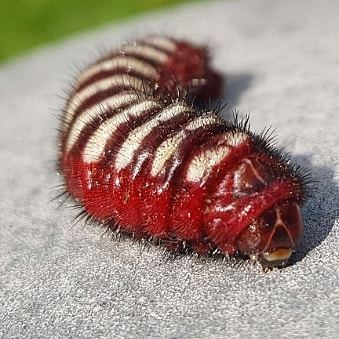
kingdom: Animalia
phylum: Arthropoda
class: Insecta
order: Lepidoptera
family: Lycaenidae
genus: Eumaeus
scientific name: Eumaeus childrenae
